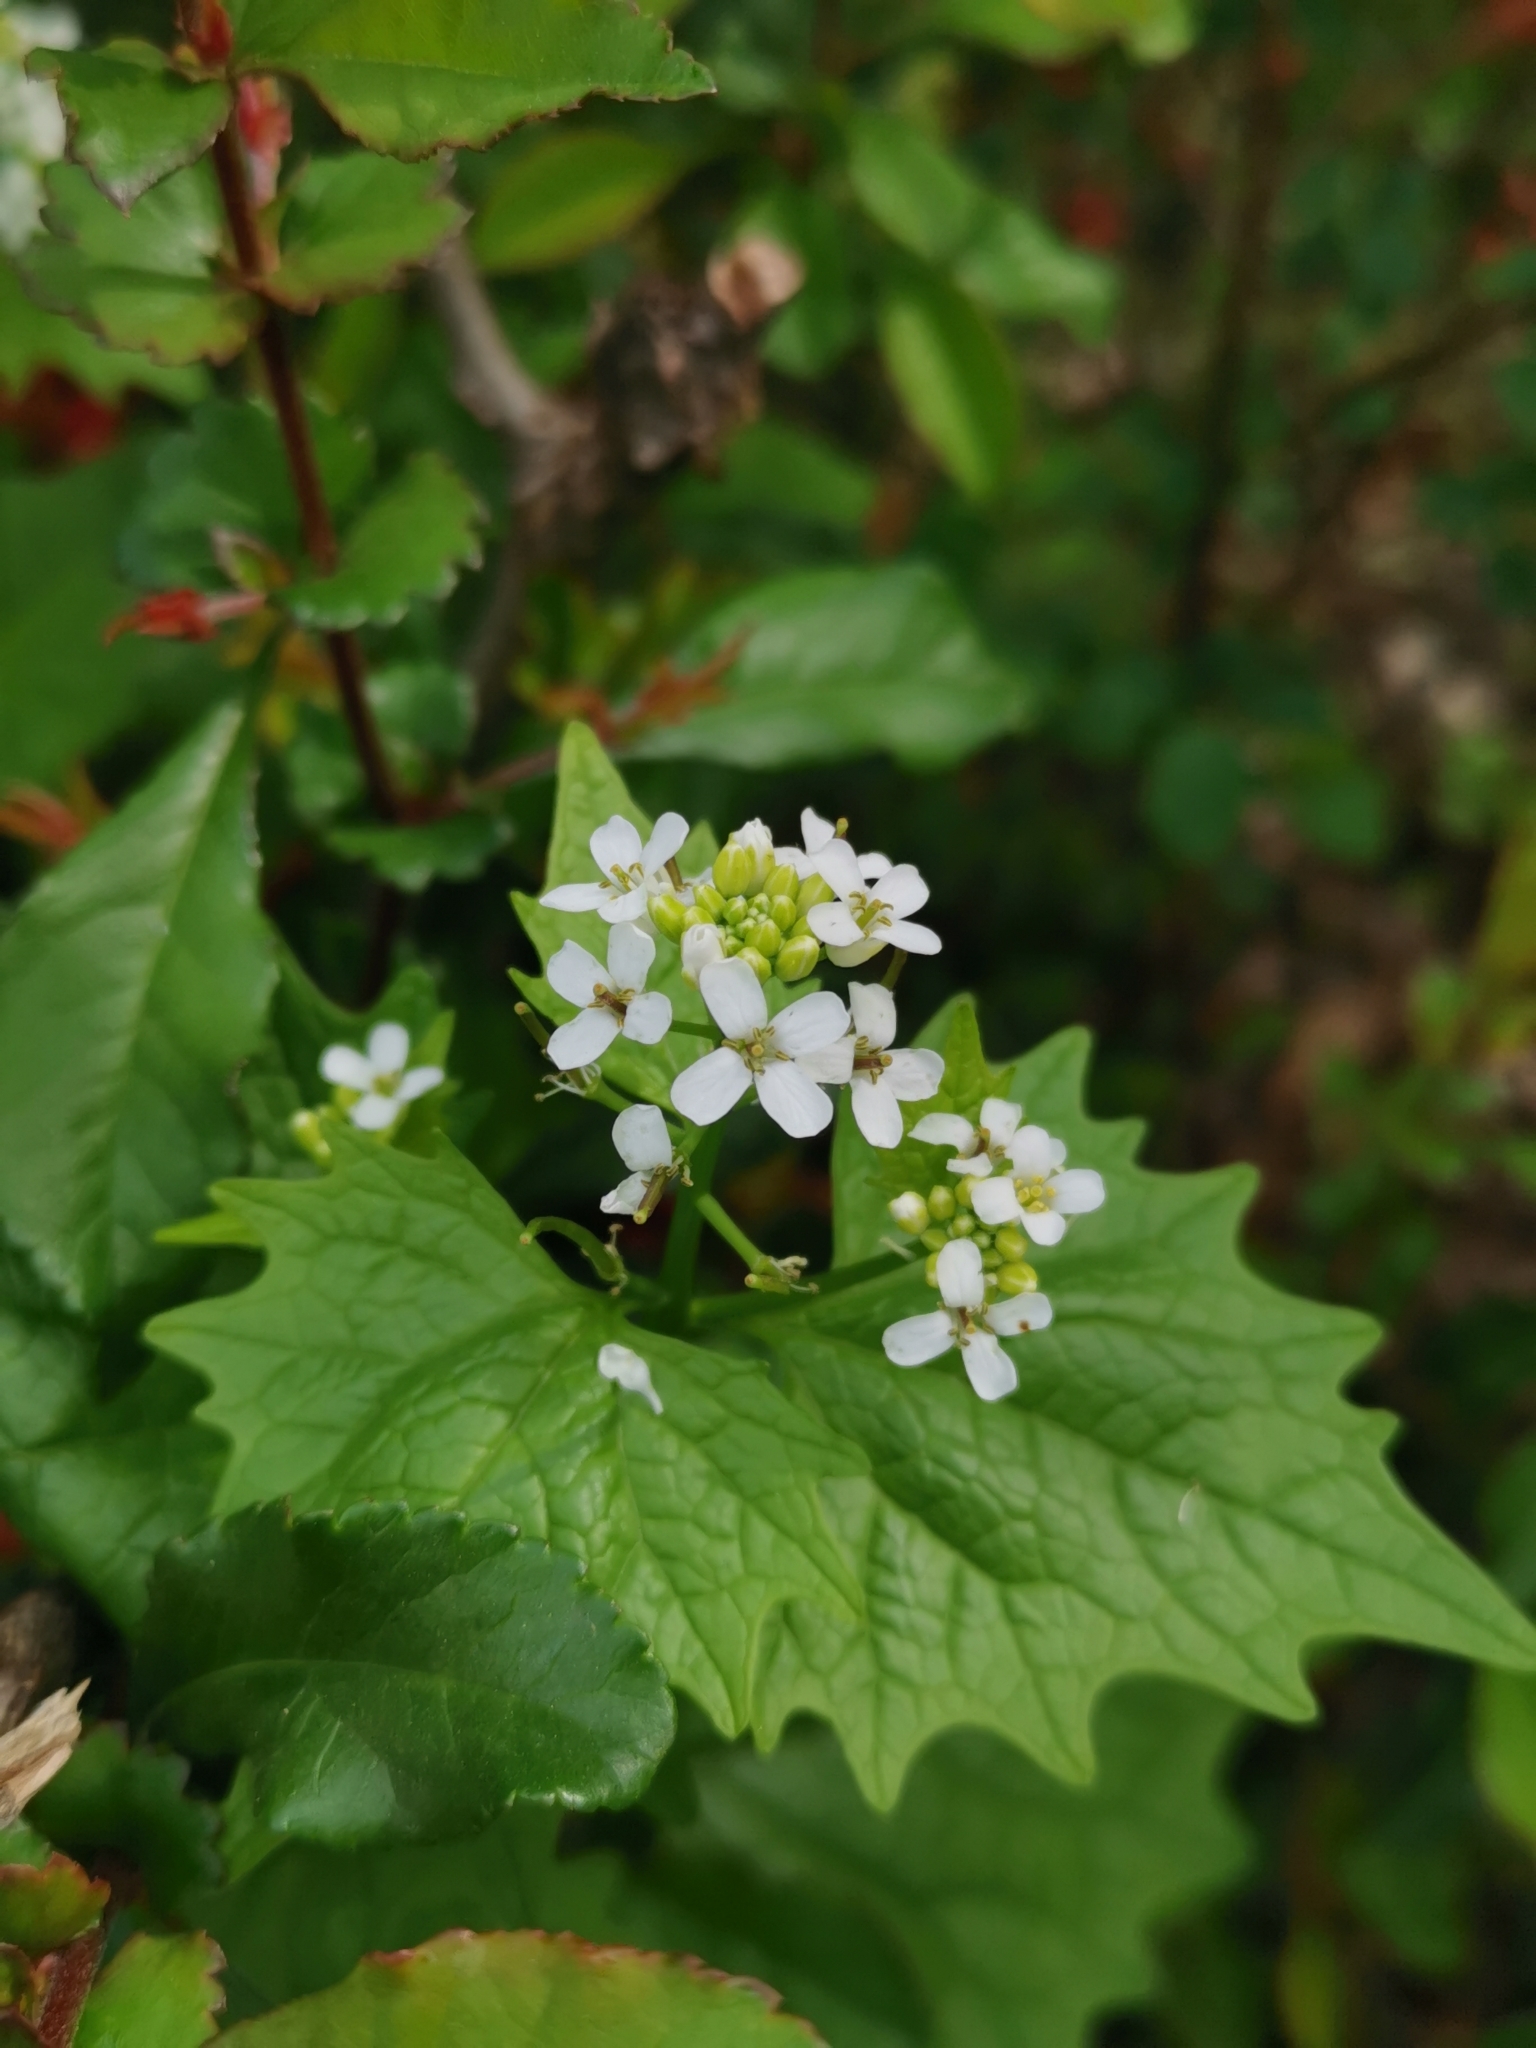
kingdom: Plantae
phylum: Tracheophyta
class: Magnoliopsida
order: Brassicales
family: Brassicaceae
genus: Alliaria
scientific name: Alliaria petiolata
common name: Garlic mustard
